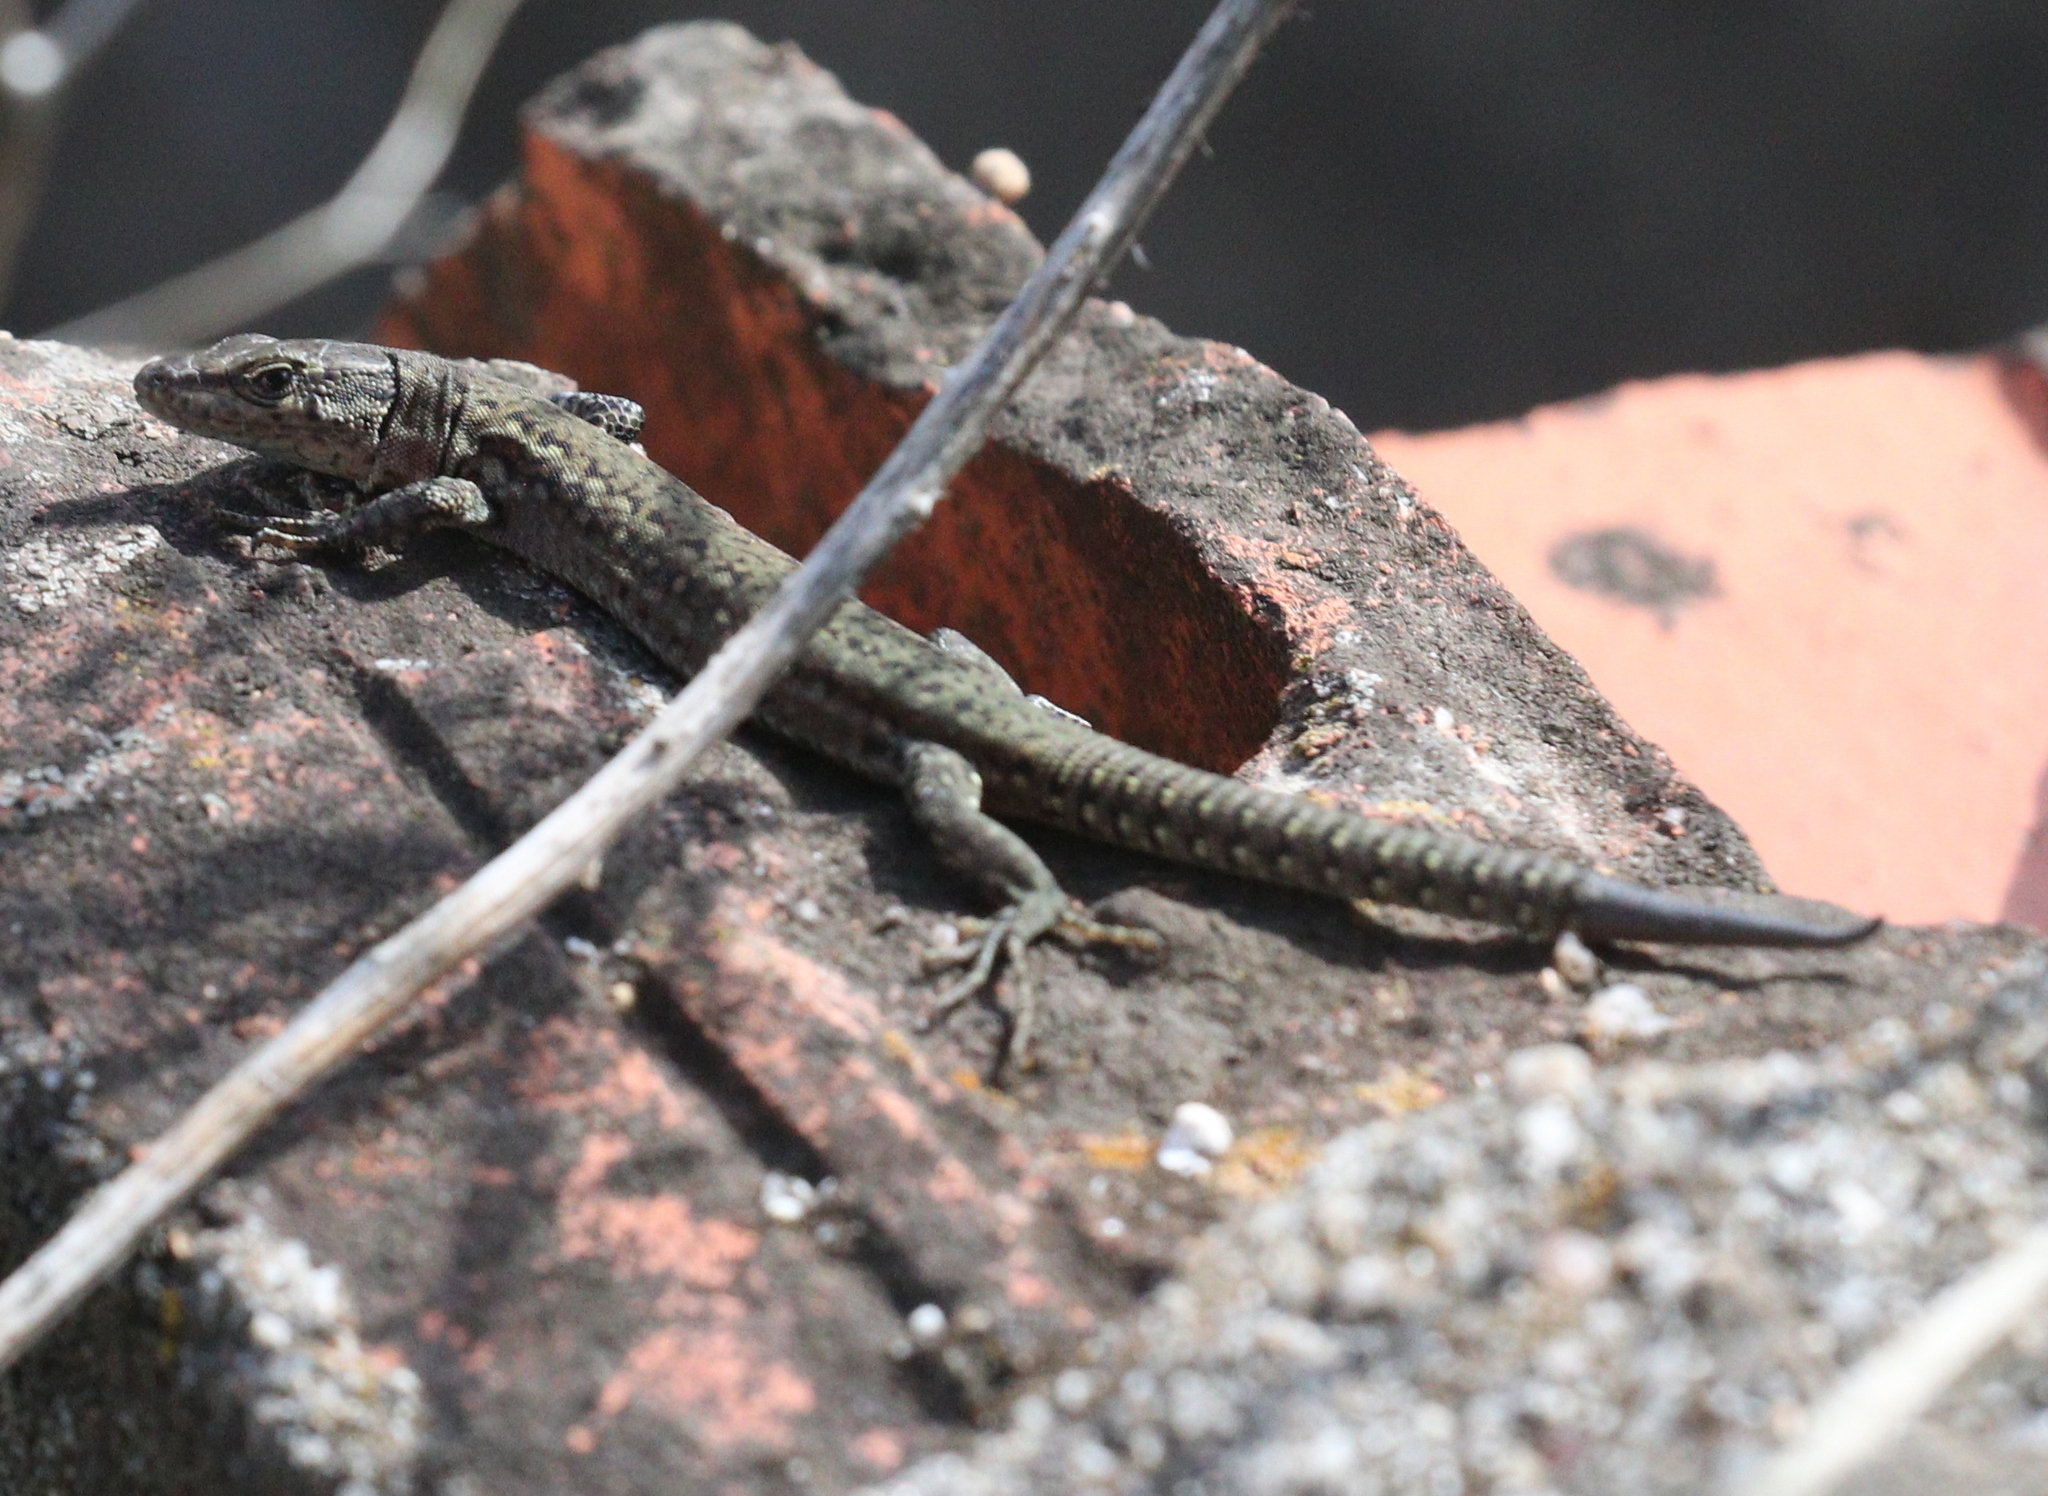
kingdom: Animalia
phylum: Chordata
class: Squamata
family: Lacertidae
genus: Podarcis
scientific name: Podarcis virescens
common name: Geniez’s wall lizard
